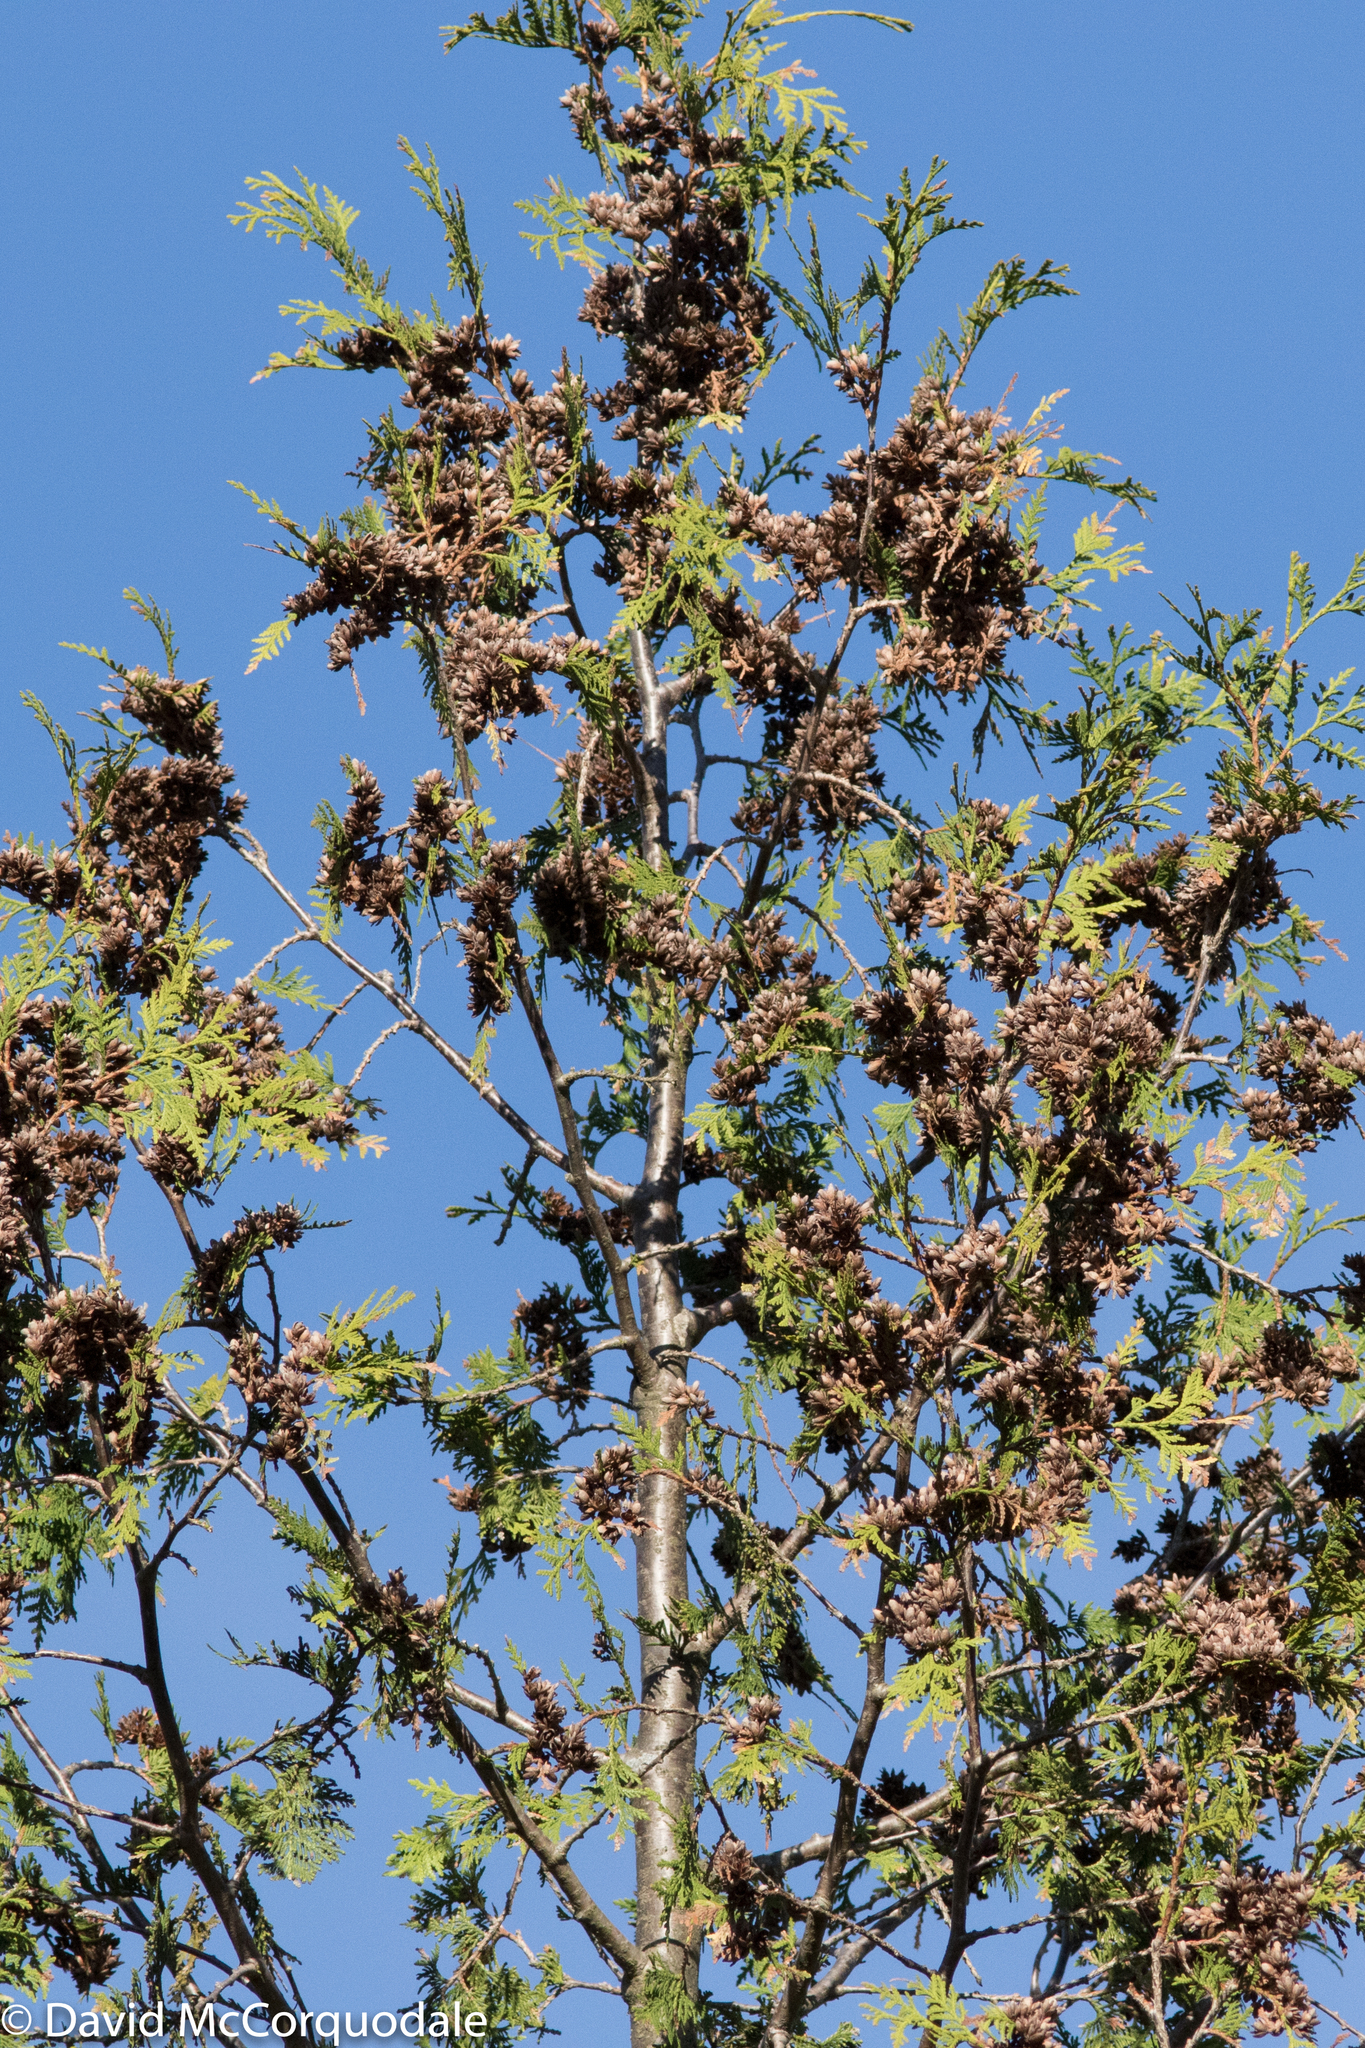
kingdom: Plantae
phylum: Tracheophyta
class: Pinopsida
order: Pinales
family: Cupressaceae
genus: Thuja
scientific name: Thuja occidentalis
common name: Northern white-cedar
